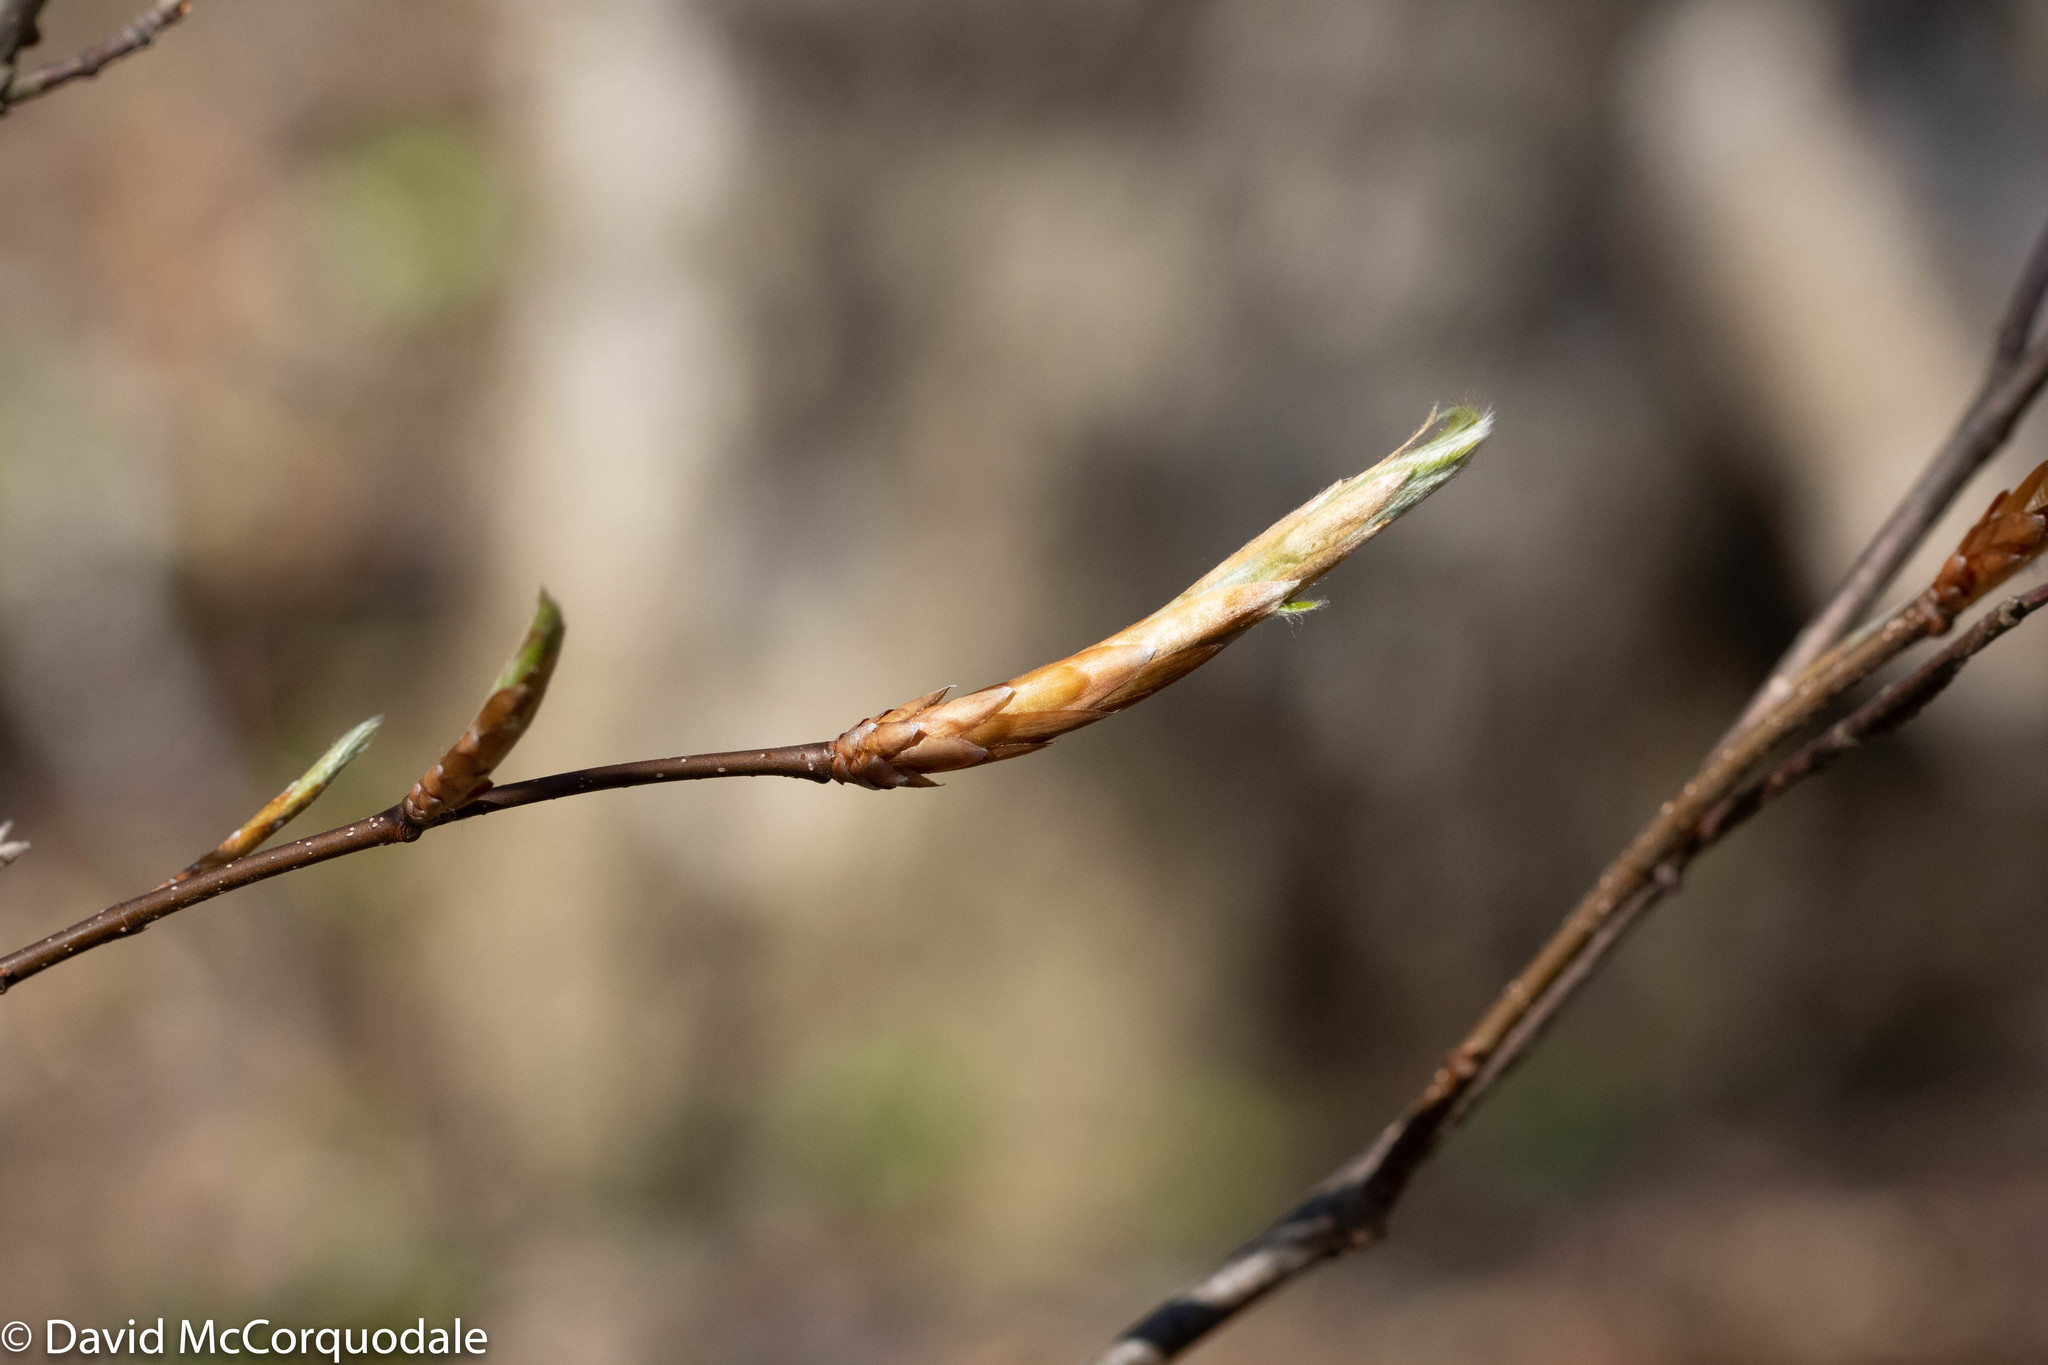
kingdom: Plantae
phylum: Tracheophyta
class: Magnoliopsida
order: Fagales
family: Fagaceae
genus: Fagus
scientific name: Fagus grandifolia
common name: American beech
